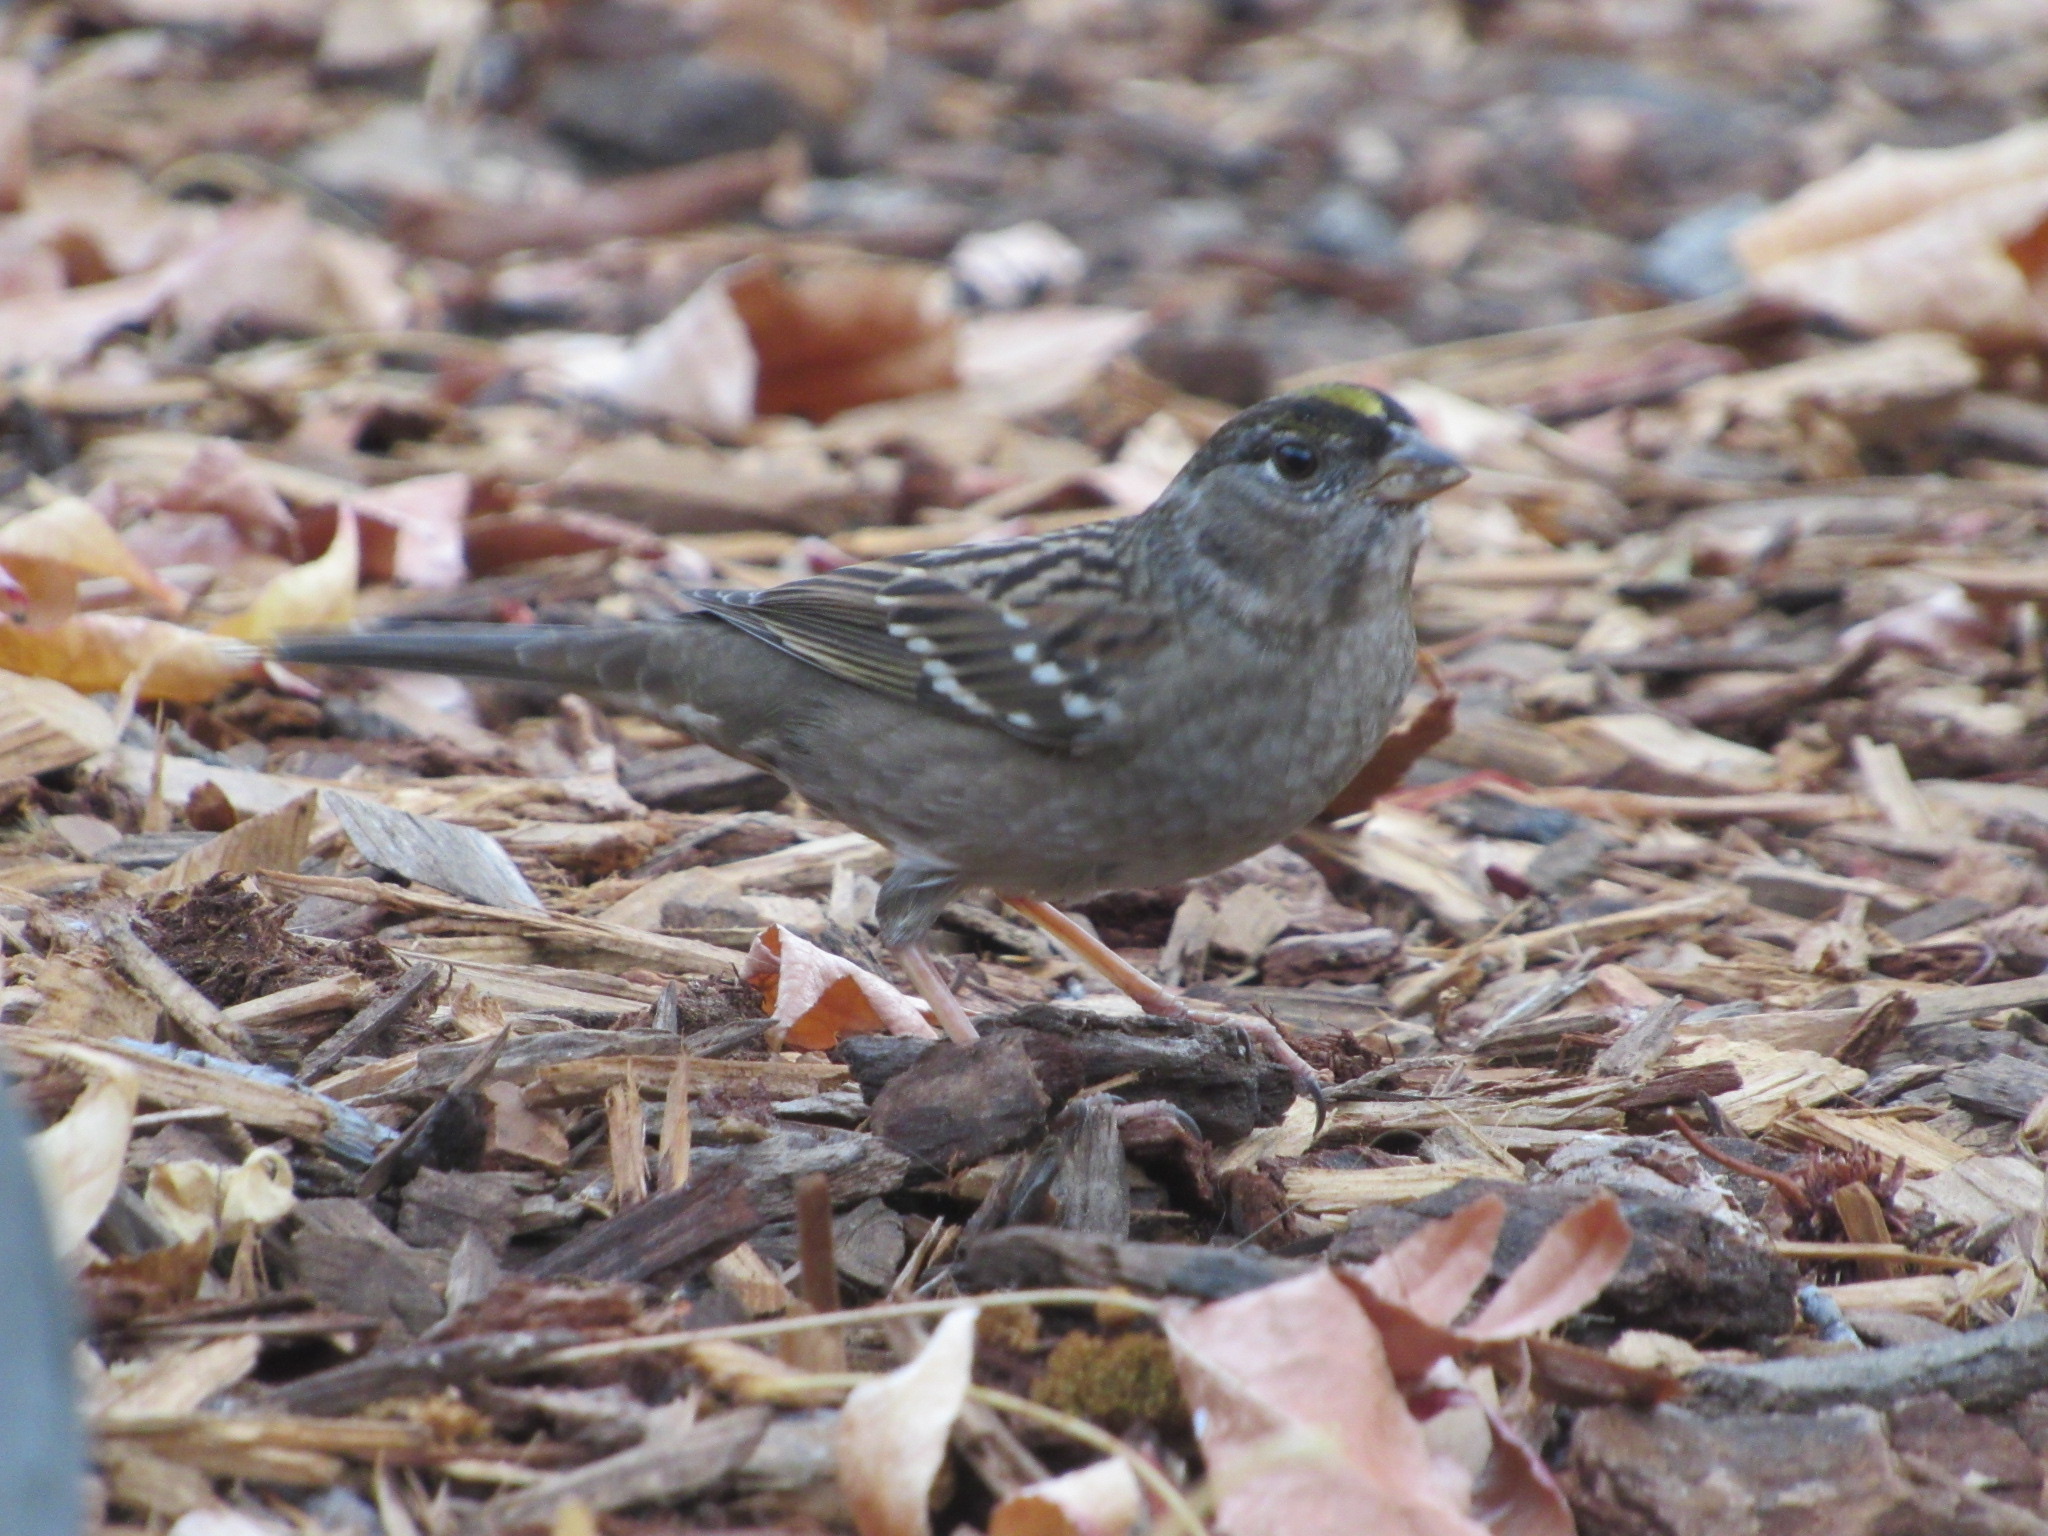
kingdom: Animalia
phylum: Chordata
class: Aves
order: Passeriformes
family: Passerellidae
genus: Zonotrichia
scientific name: Zonotrichia atricapilla
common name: Golden-crowned sparrow
